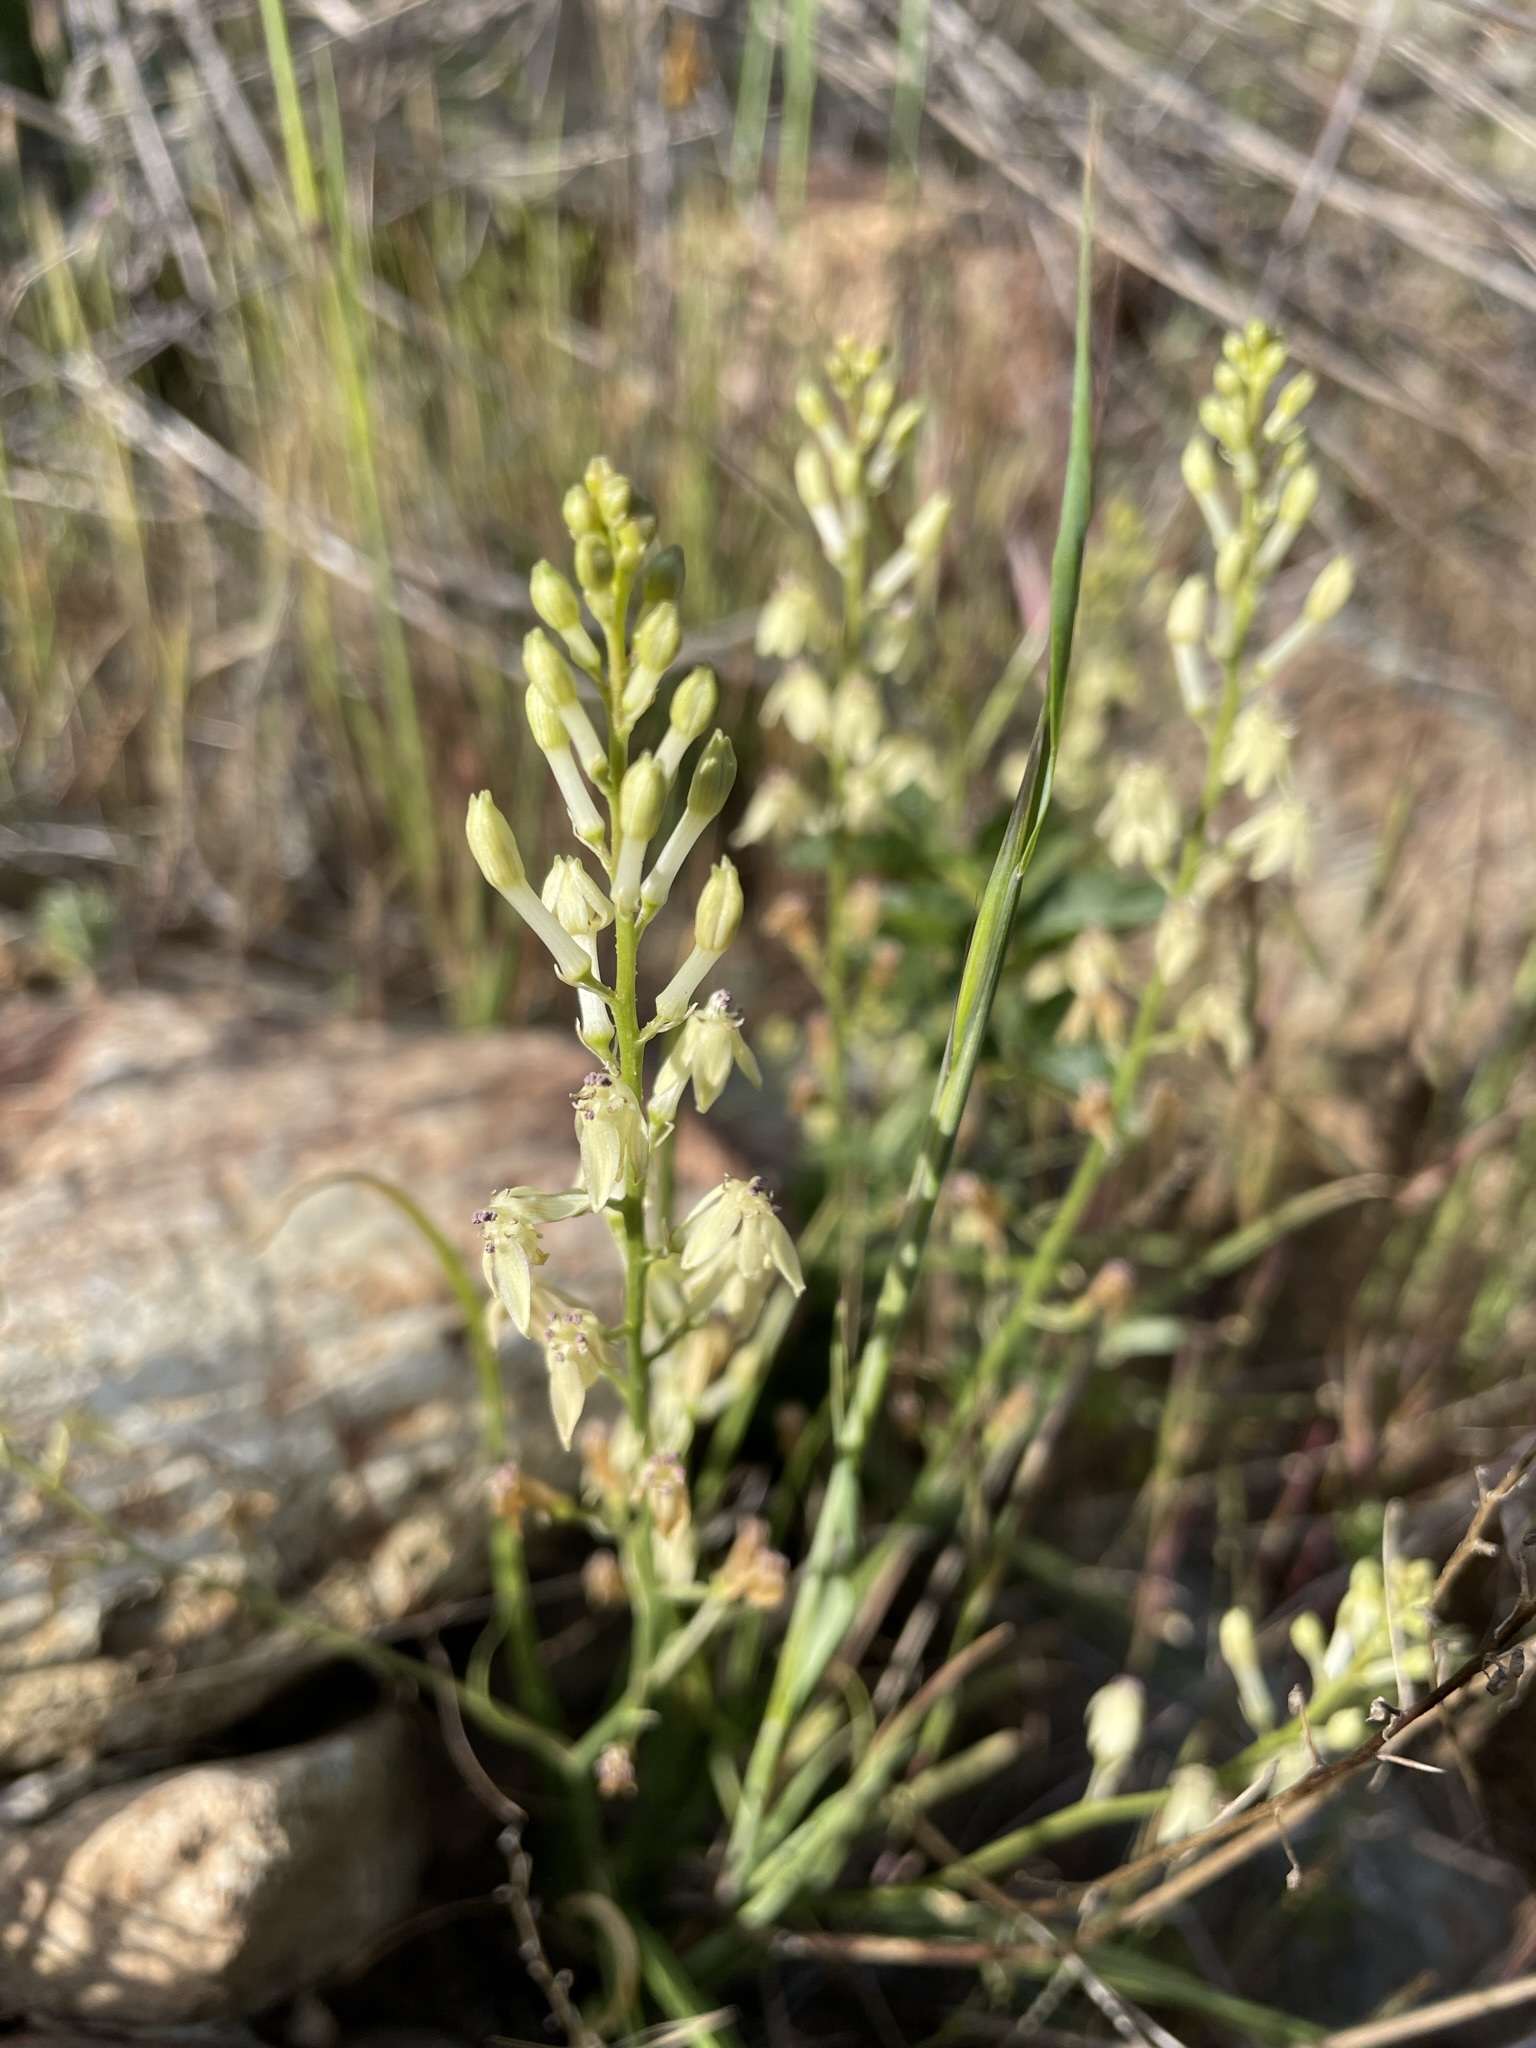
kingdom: Plantae
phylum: Tracheophyta
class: Liliopsida
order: Asparagales
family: Tecophilaeaceae
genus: Odontostomum
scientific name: Odontostomum hartwegii
